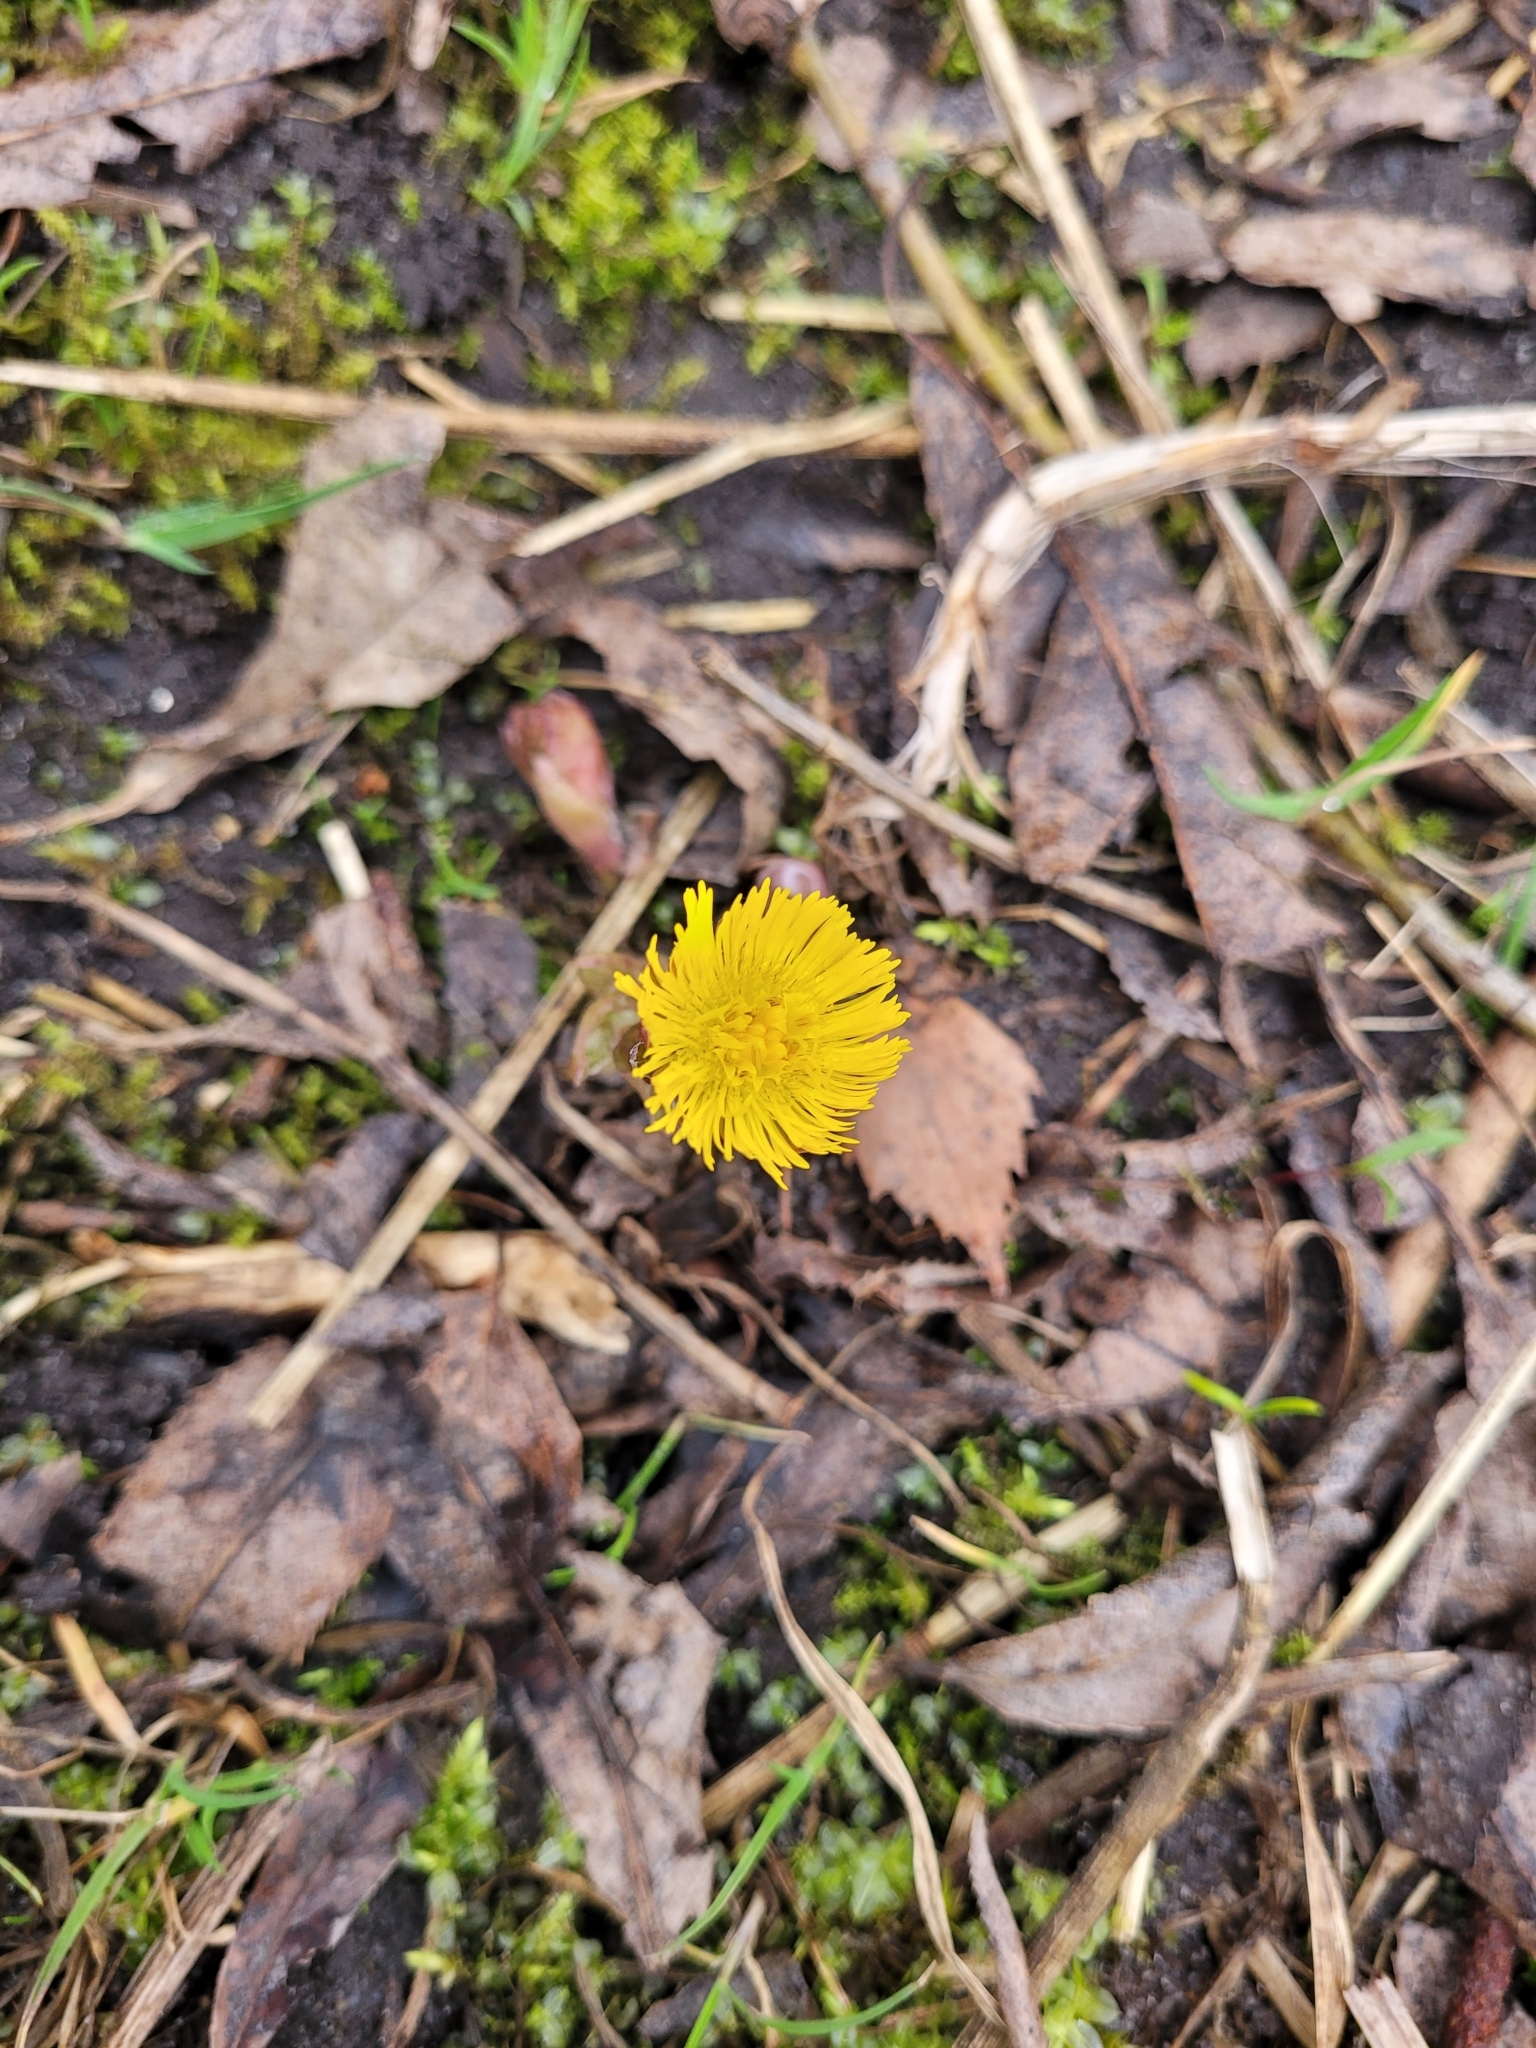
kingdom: Plantae
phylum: Tracheophyta
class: Magnoliopsida
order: Asterales
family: Asteraceae
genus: Tussilago
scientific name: Tussilago farfara
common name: Coltsfoot
